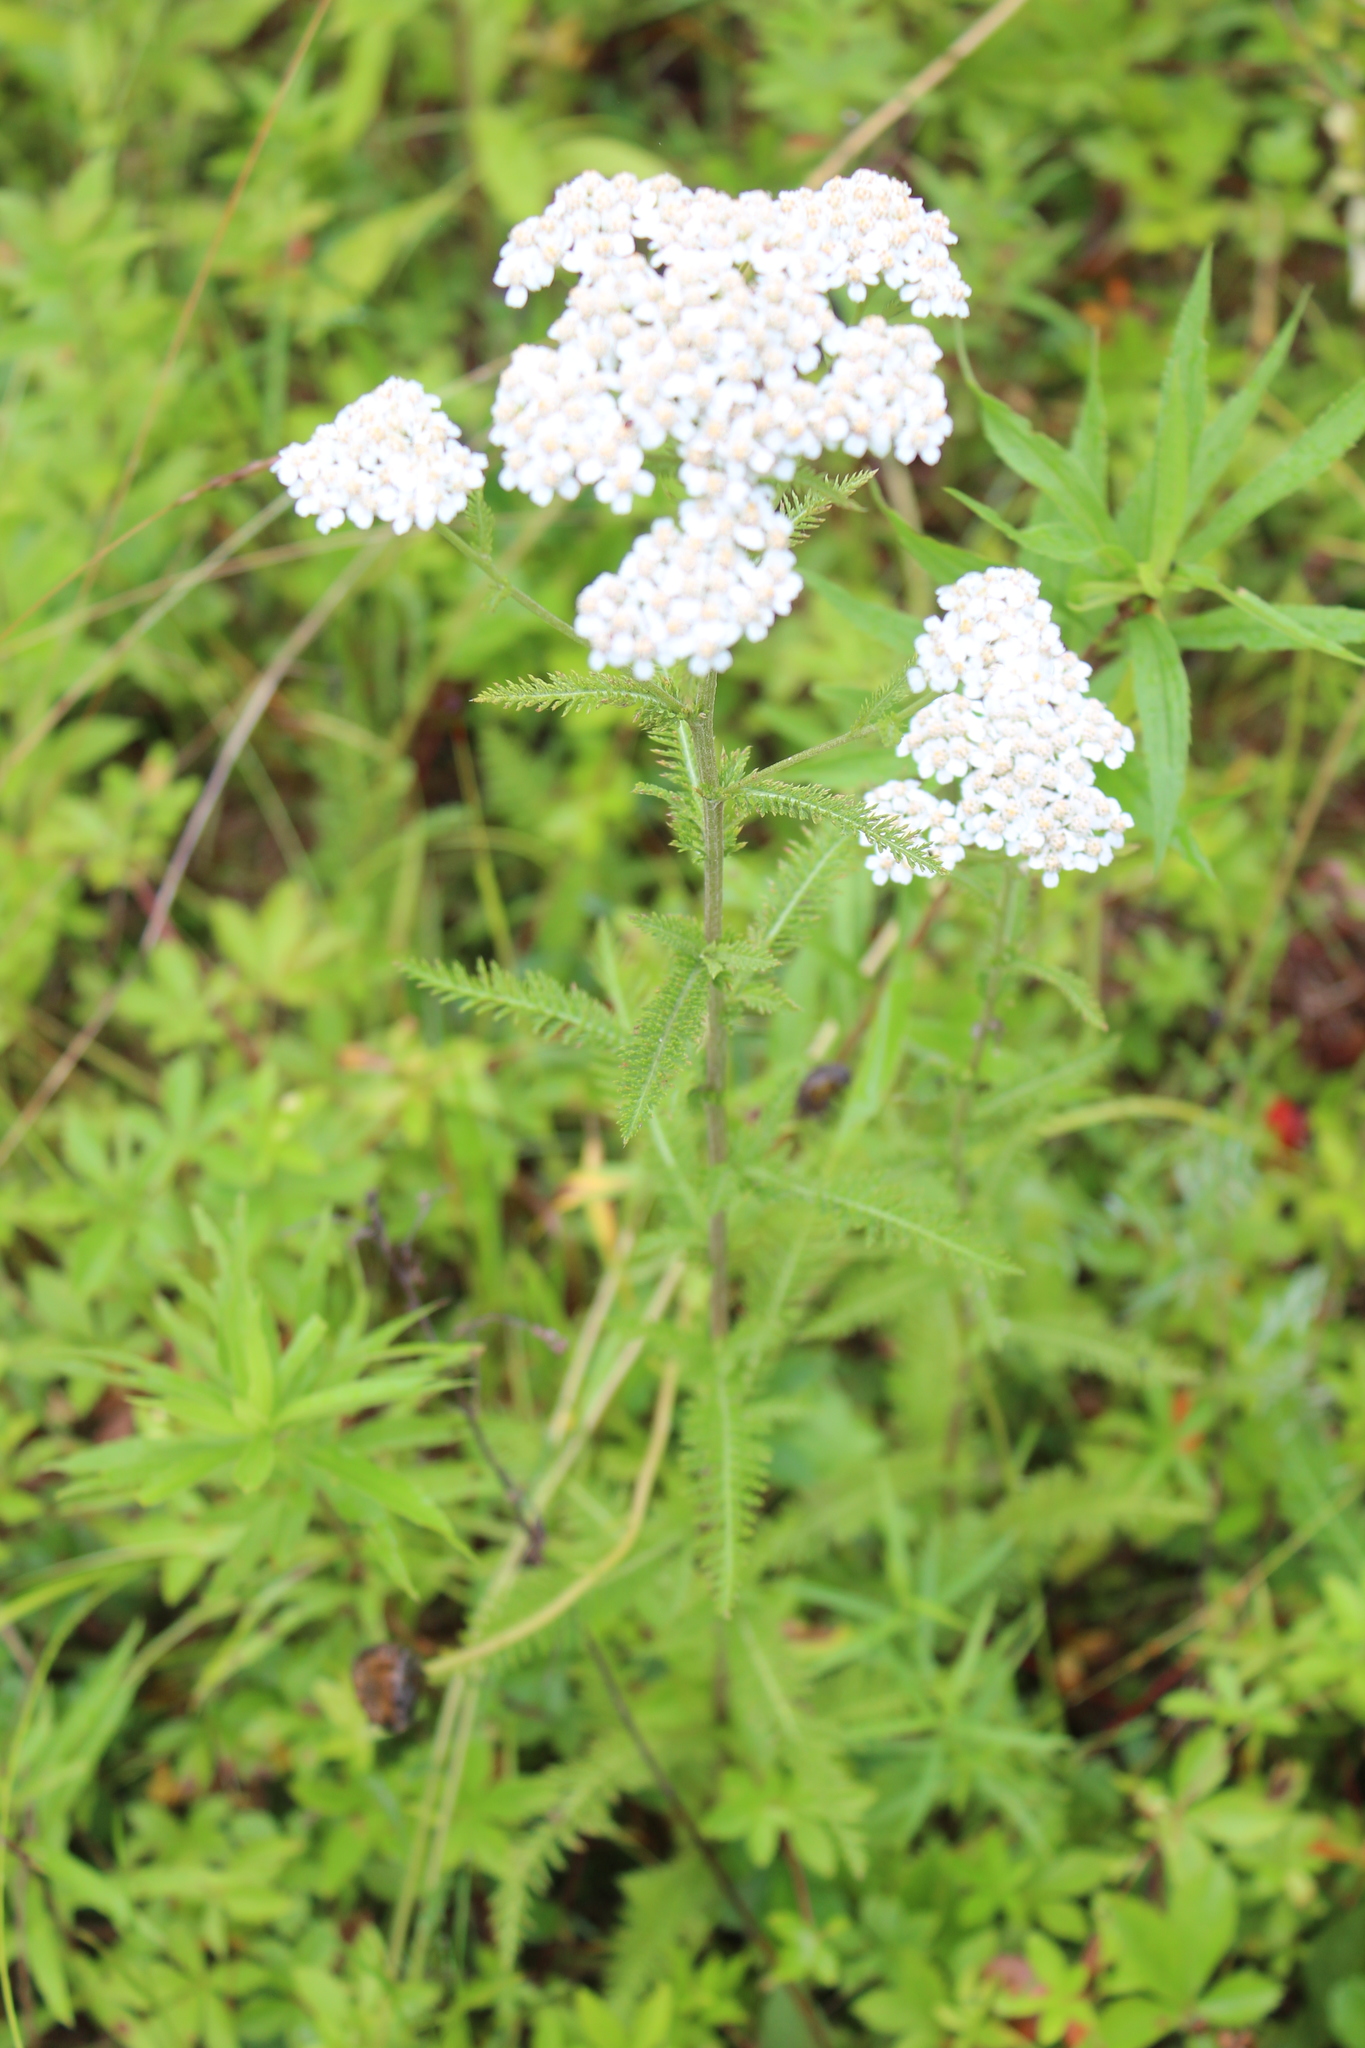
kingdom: Plantae
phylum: Tracheophyta
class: Magnoliopsida
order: Asterales
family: Asteraceae
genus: Achillea
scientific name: Achillea millefolium
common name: Yarrow
